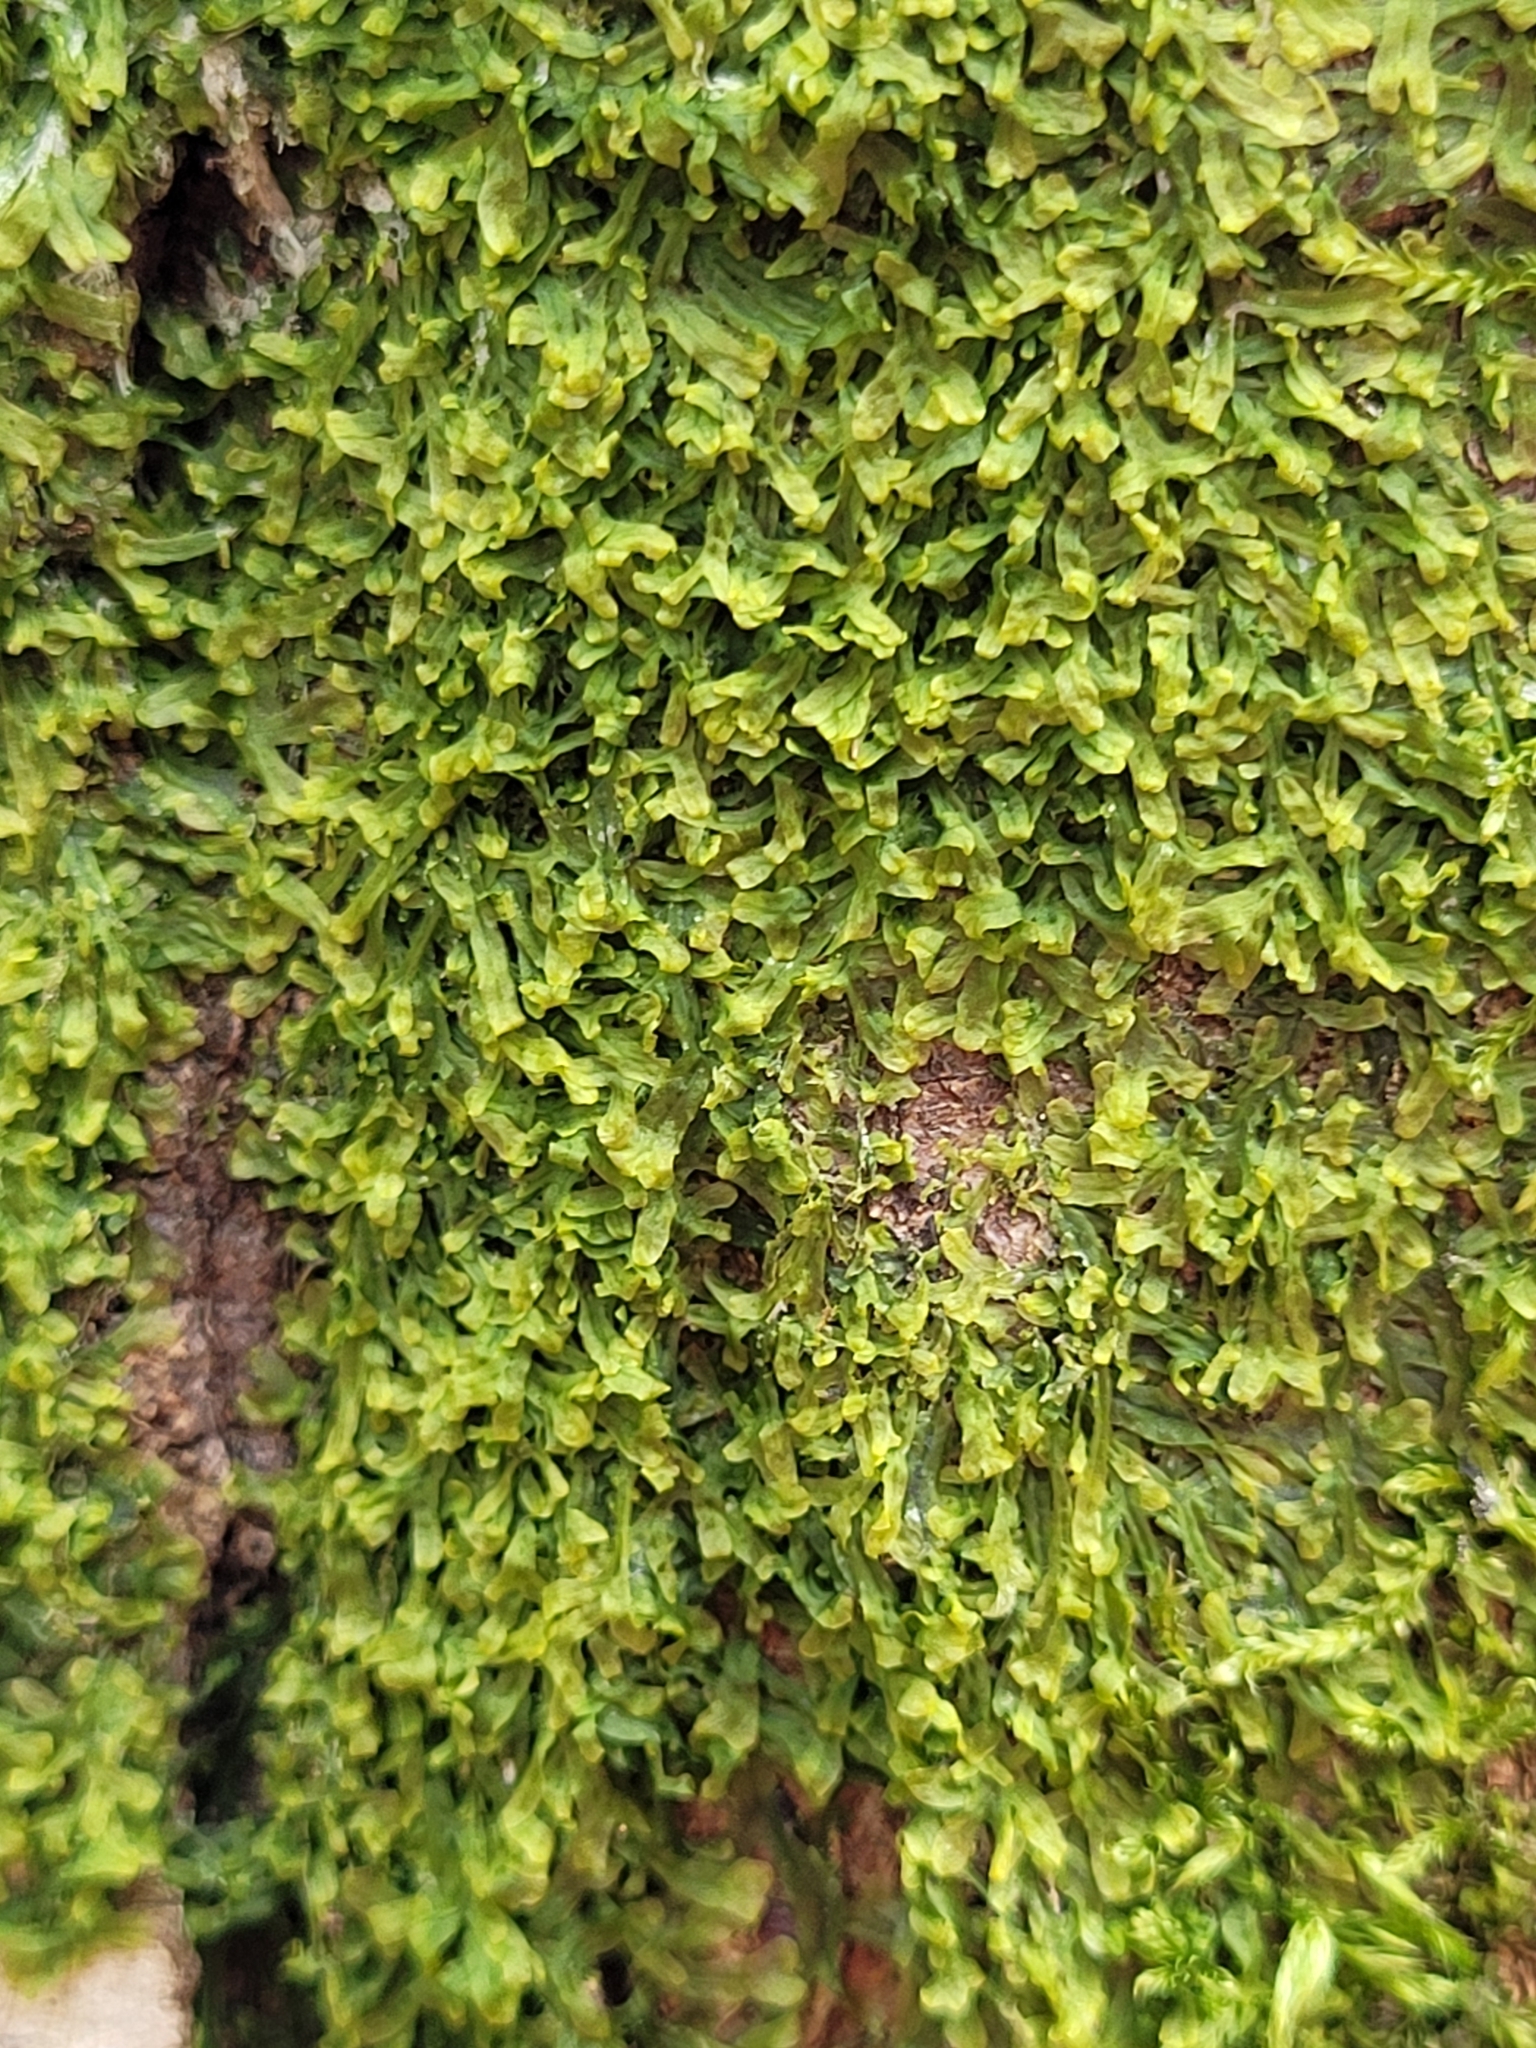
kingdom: Plantae
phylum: Marchantiophyta
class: Jungermanniopsida
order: Metzgeriales
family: Metzgeriaceae
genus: Metzgeria
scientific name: Metzgeria furcata
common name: Forked veilwort
